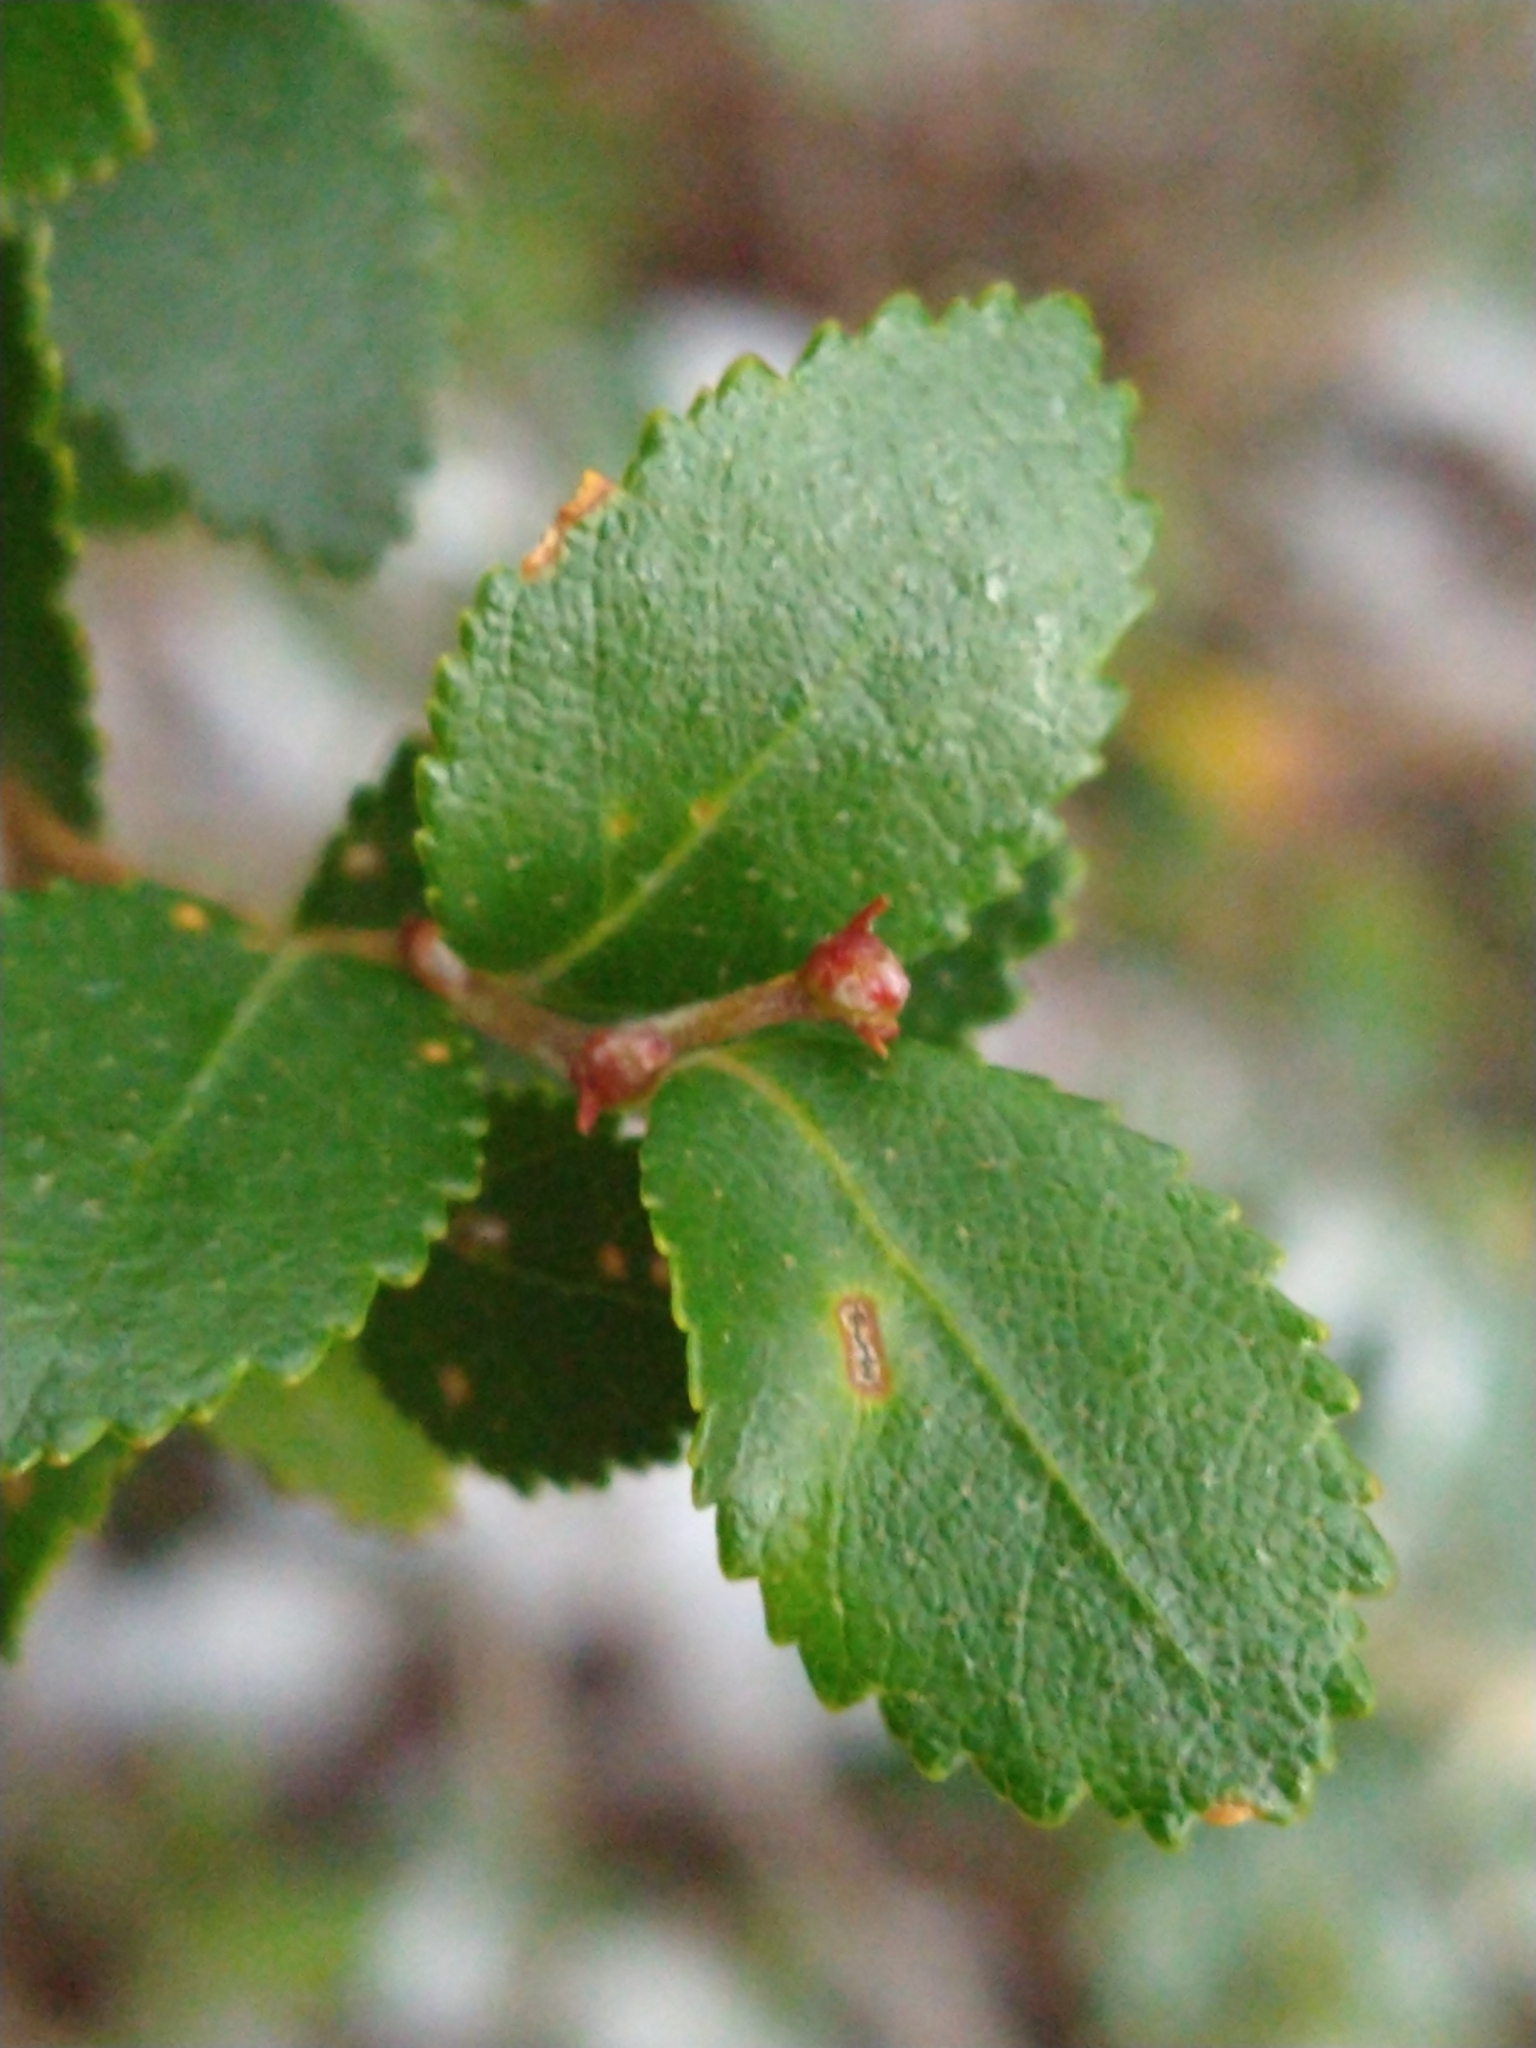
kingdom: Plantae
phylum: Tracheophyta
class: Magnoliopsida
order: Fagales
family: Nothofagaceae
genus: Nothofagus
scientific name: Nothofagus betuloides
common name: Magellan's beech
